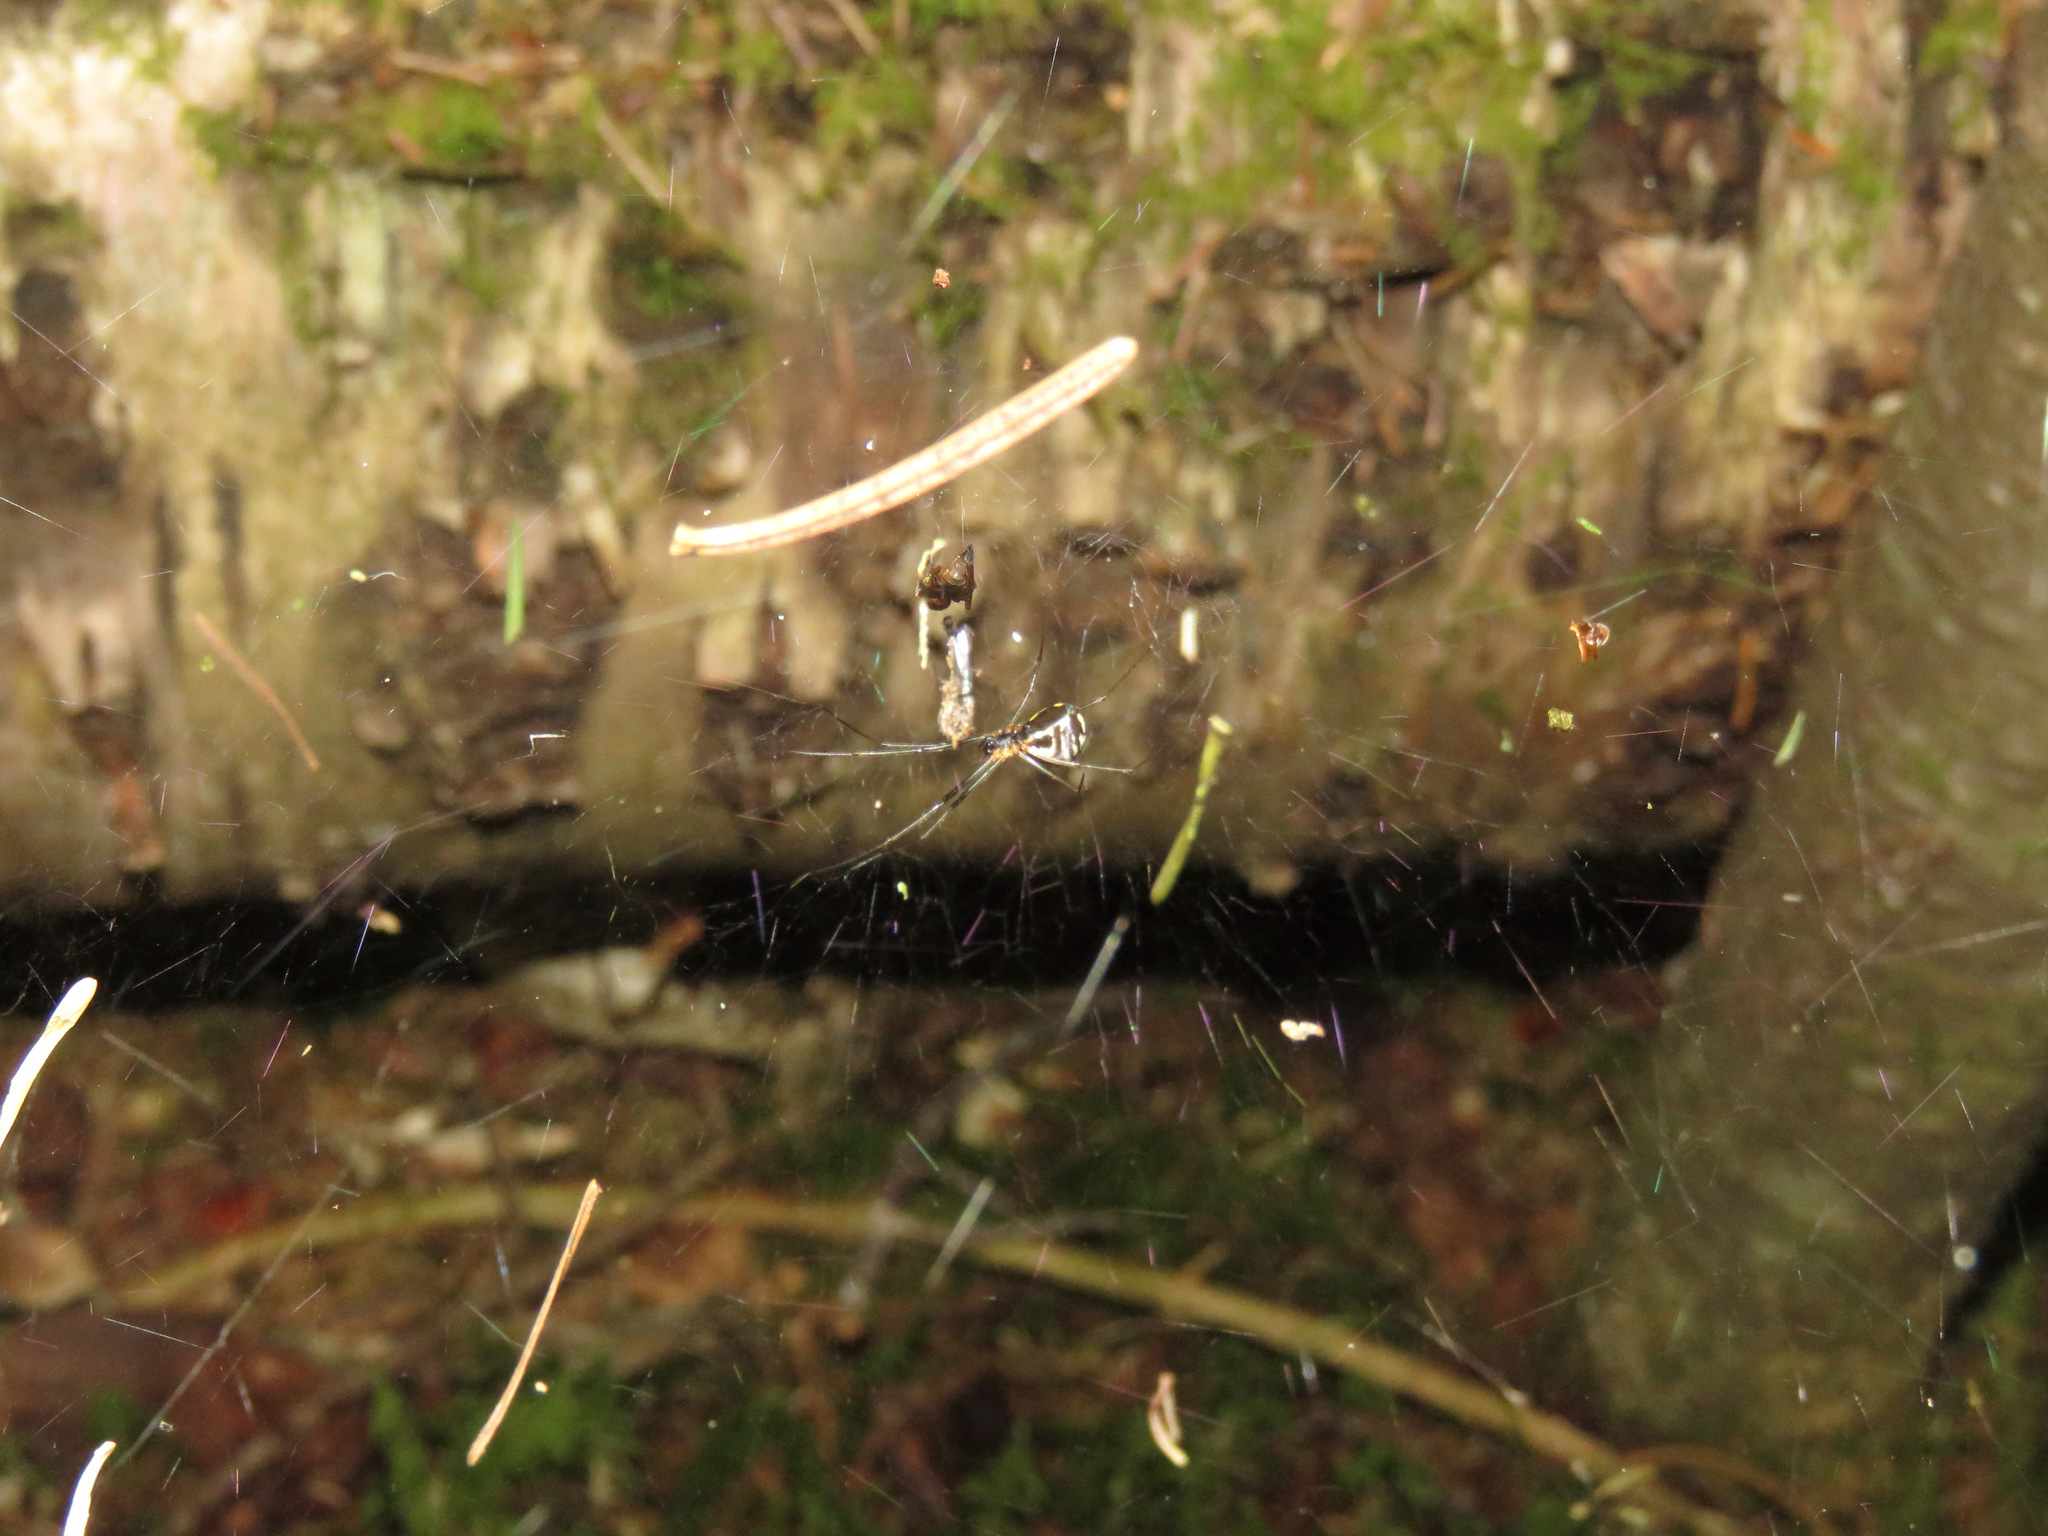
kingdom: Animalia
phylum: Arthropoda
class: Arachnida
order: Araneae
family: Linyphiidae
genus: Neriene
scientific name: Neriene radiata
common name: Filmy dome spider
